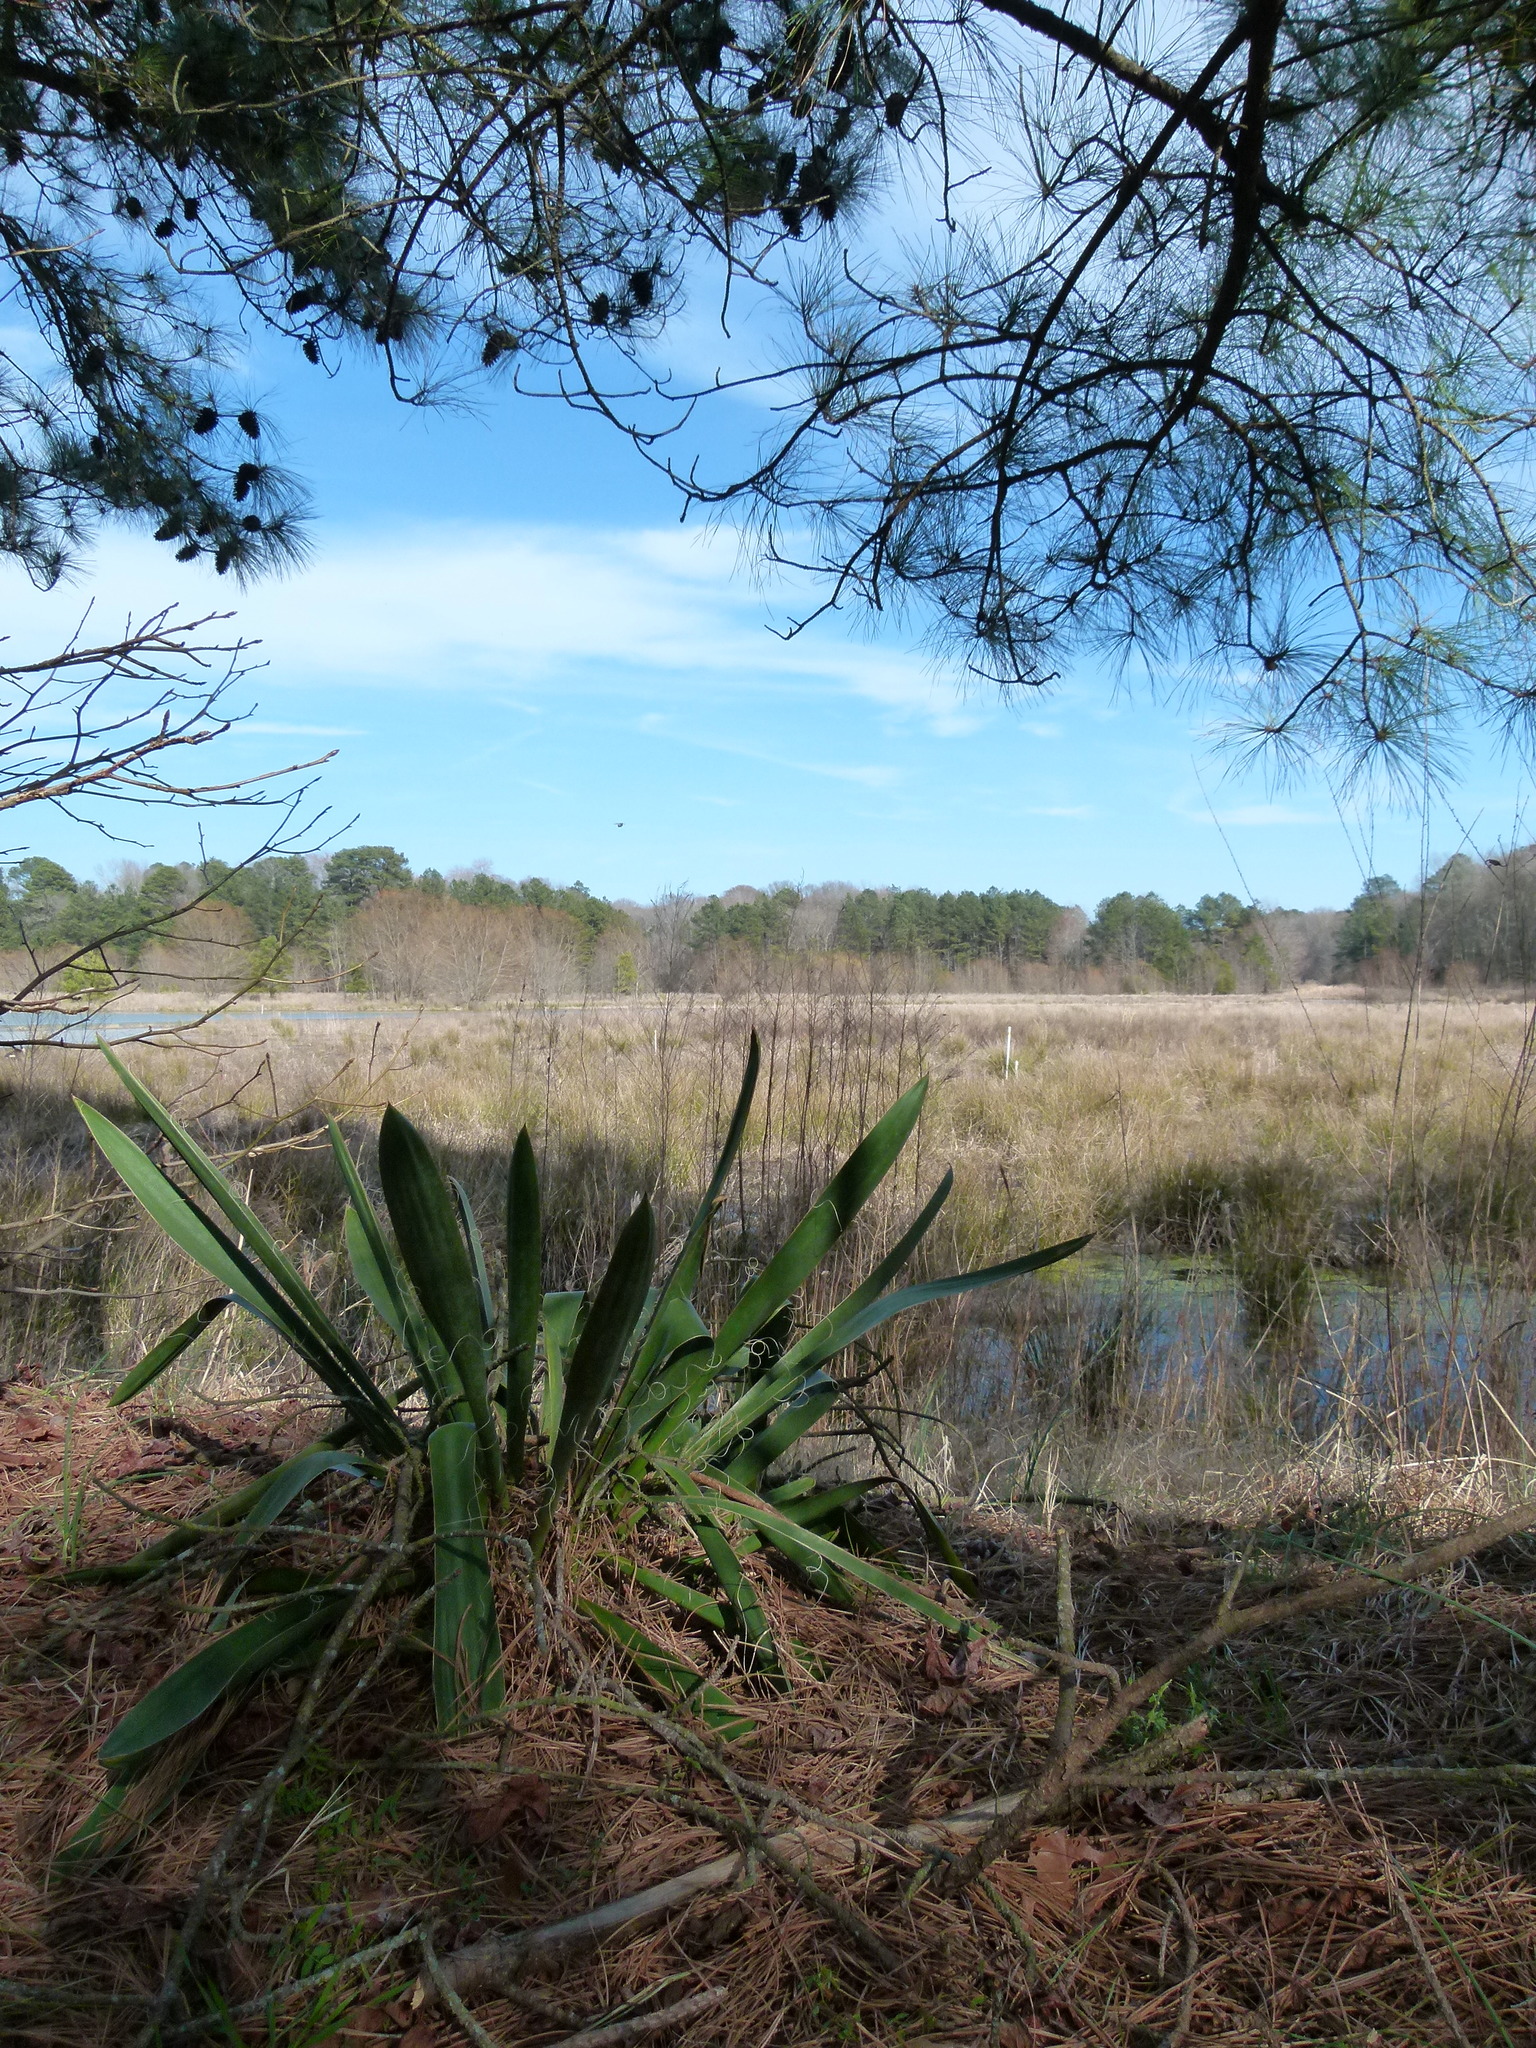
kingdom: Plantae
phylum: Tracheophyta
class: Liliopsida
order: Asparagales
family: Asparagaceae
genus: Yucca
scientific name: Yucca filamentosa
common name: Adam's-needle
